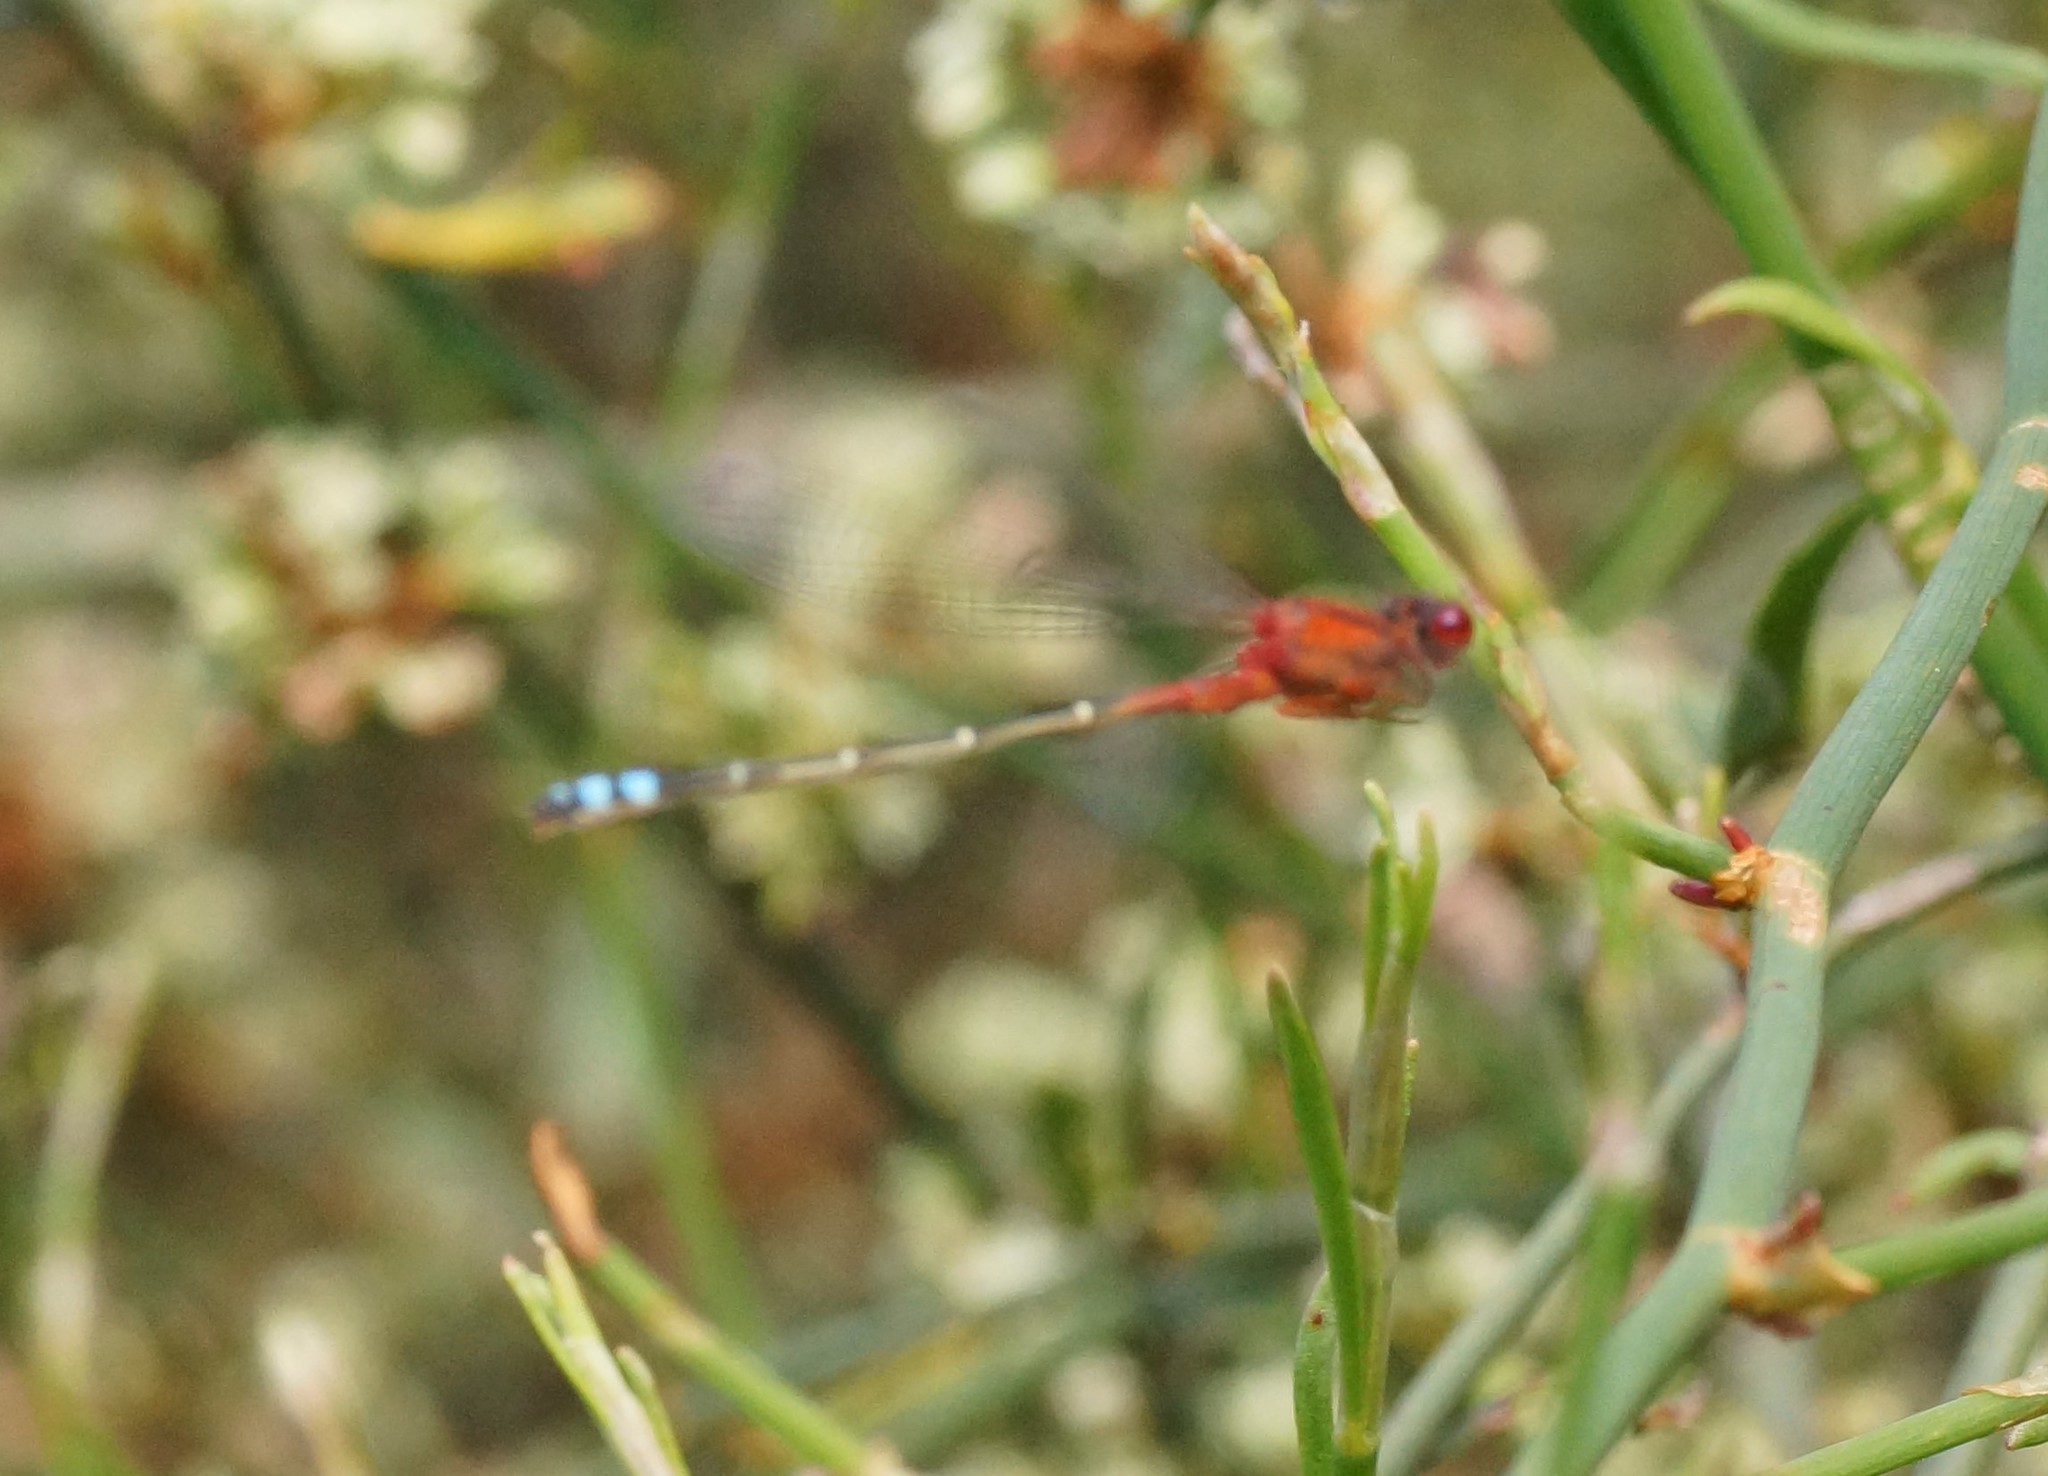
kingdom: Animalia
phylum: Arthropoda
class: Insecta
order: Odonata
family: Coenagrionidae
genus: Xanthagrion
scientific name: Xanthagrion erythroneurum
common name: Red and blue damsel
